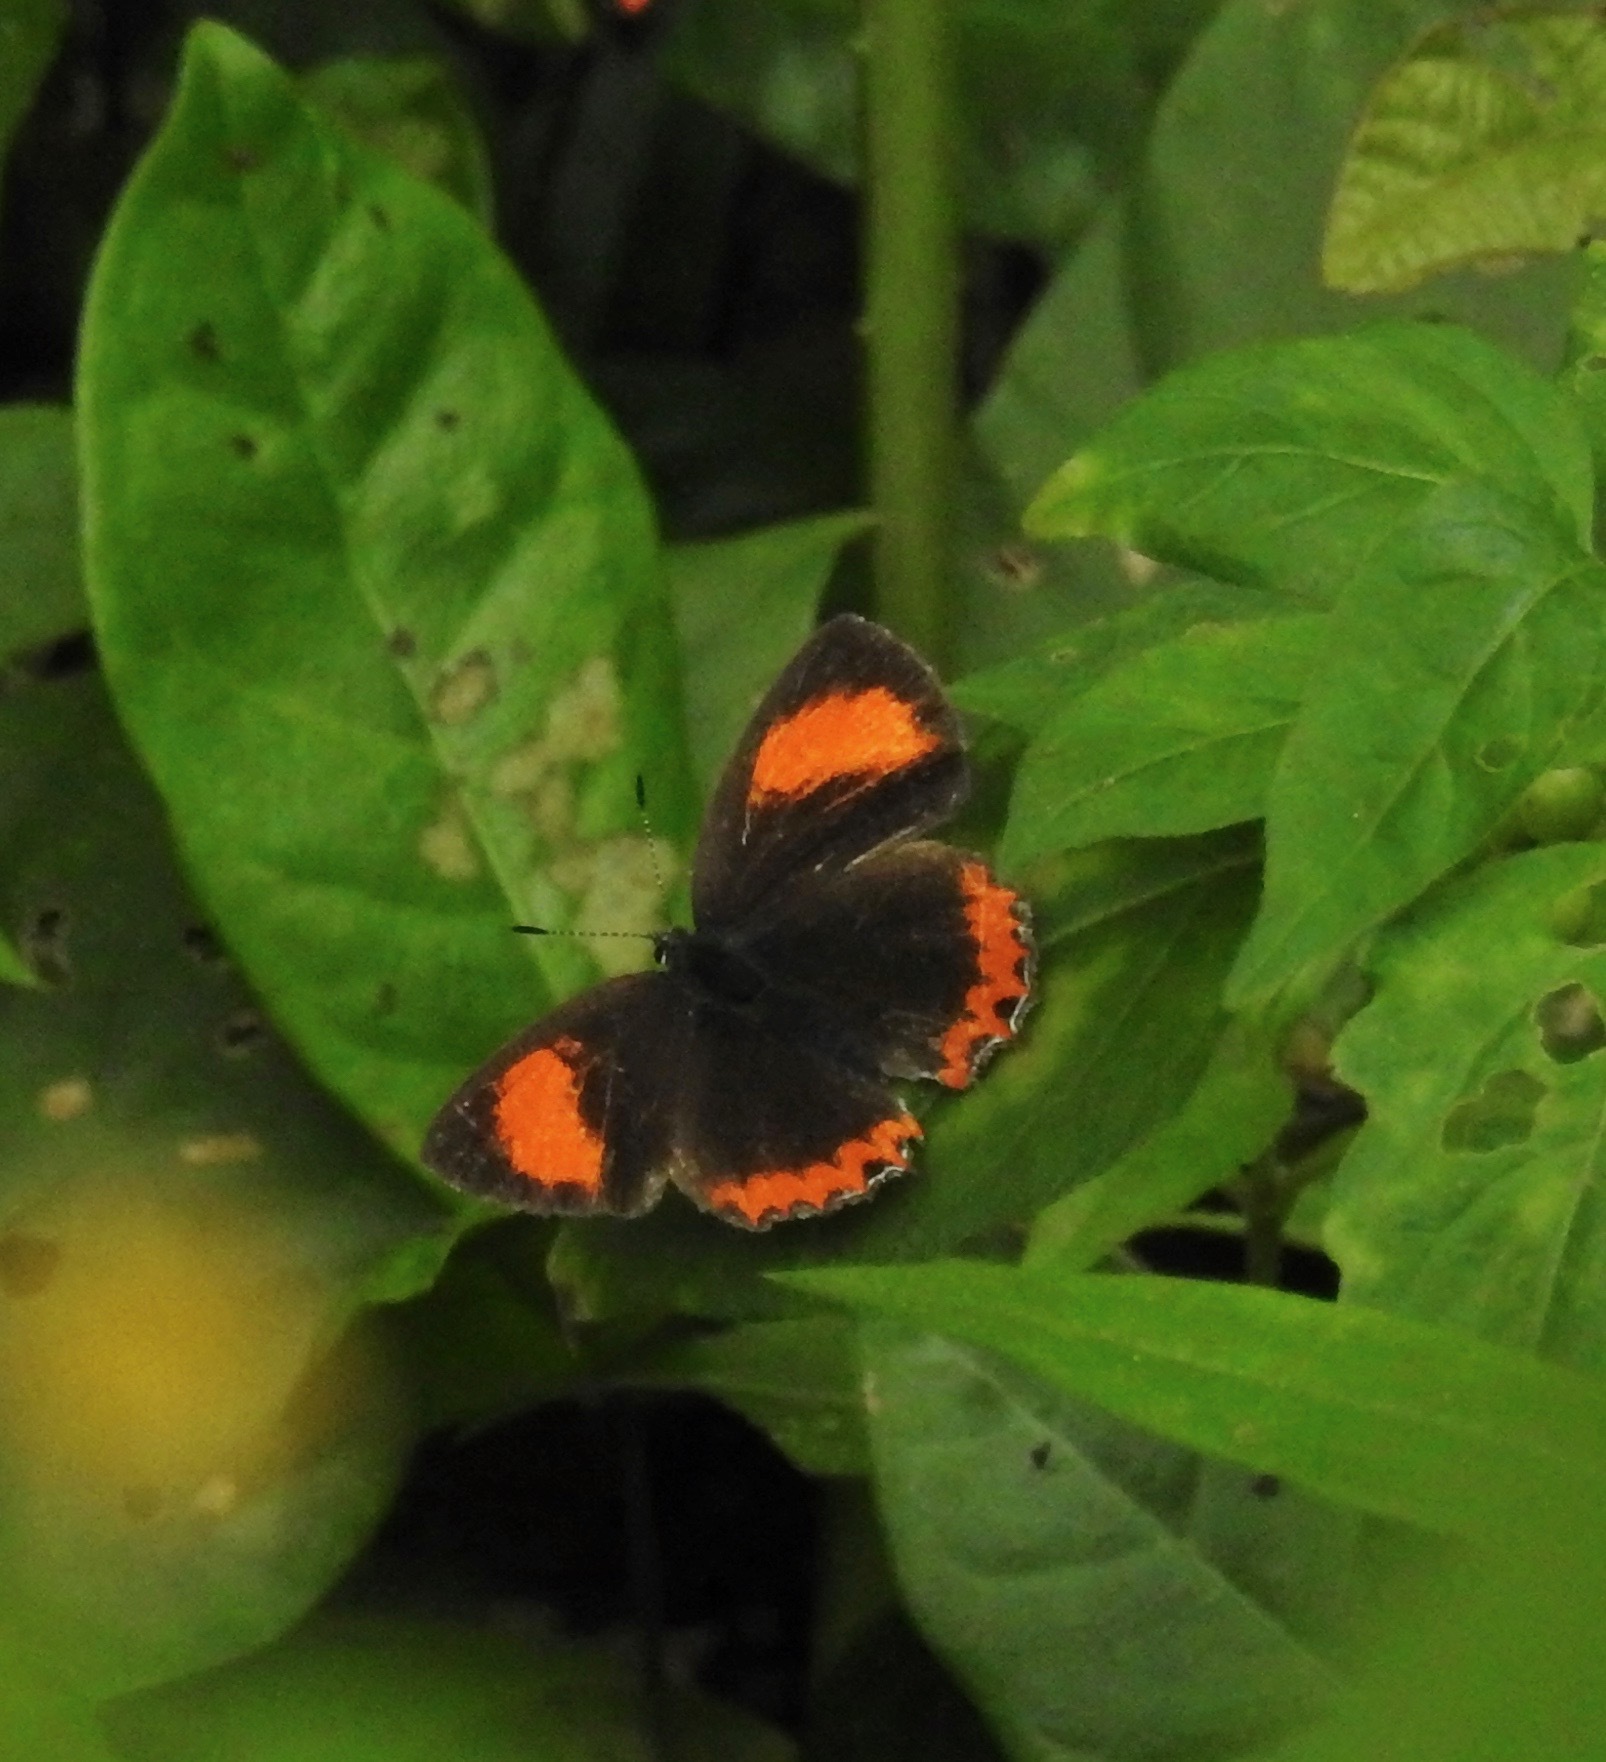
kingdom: Animalia
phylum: Arthropoda
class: Insecta
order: Lepidoptera
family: Lycaenidae
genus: Heliophorus
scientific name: Heliophorus epicles
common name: Purple sapphire
